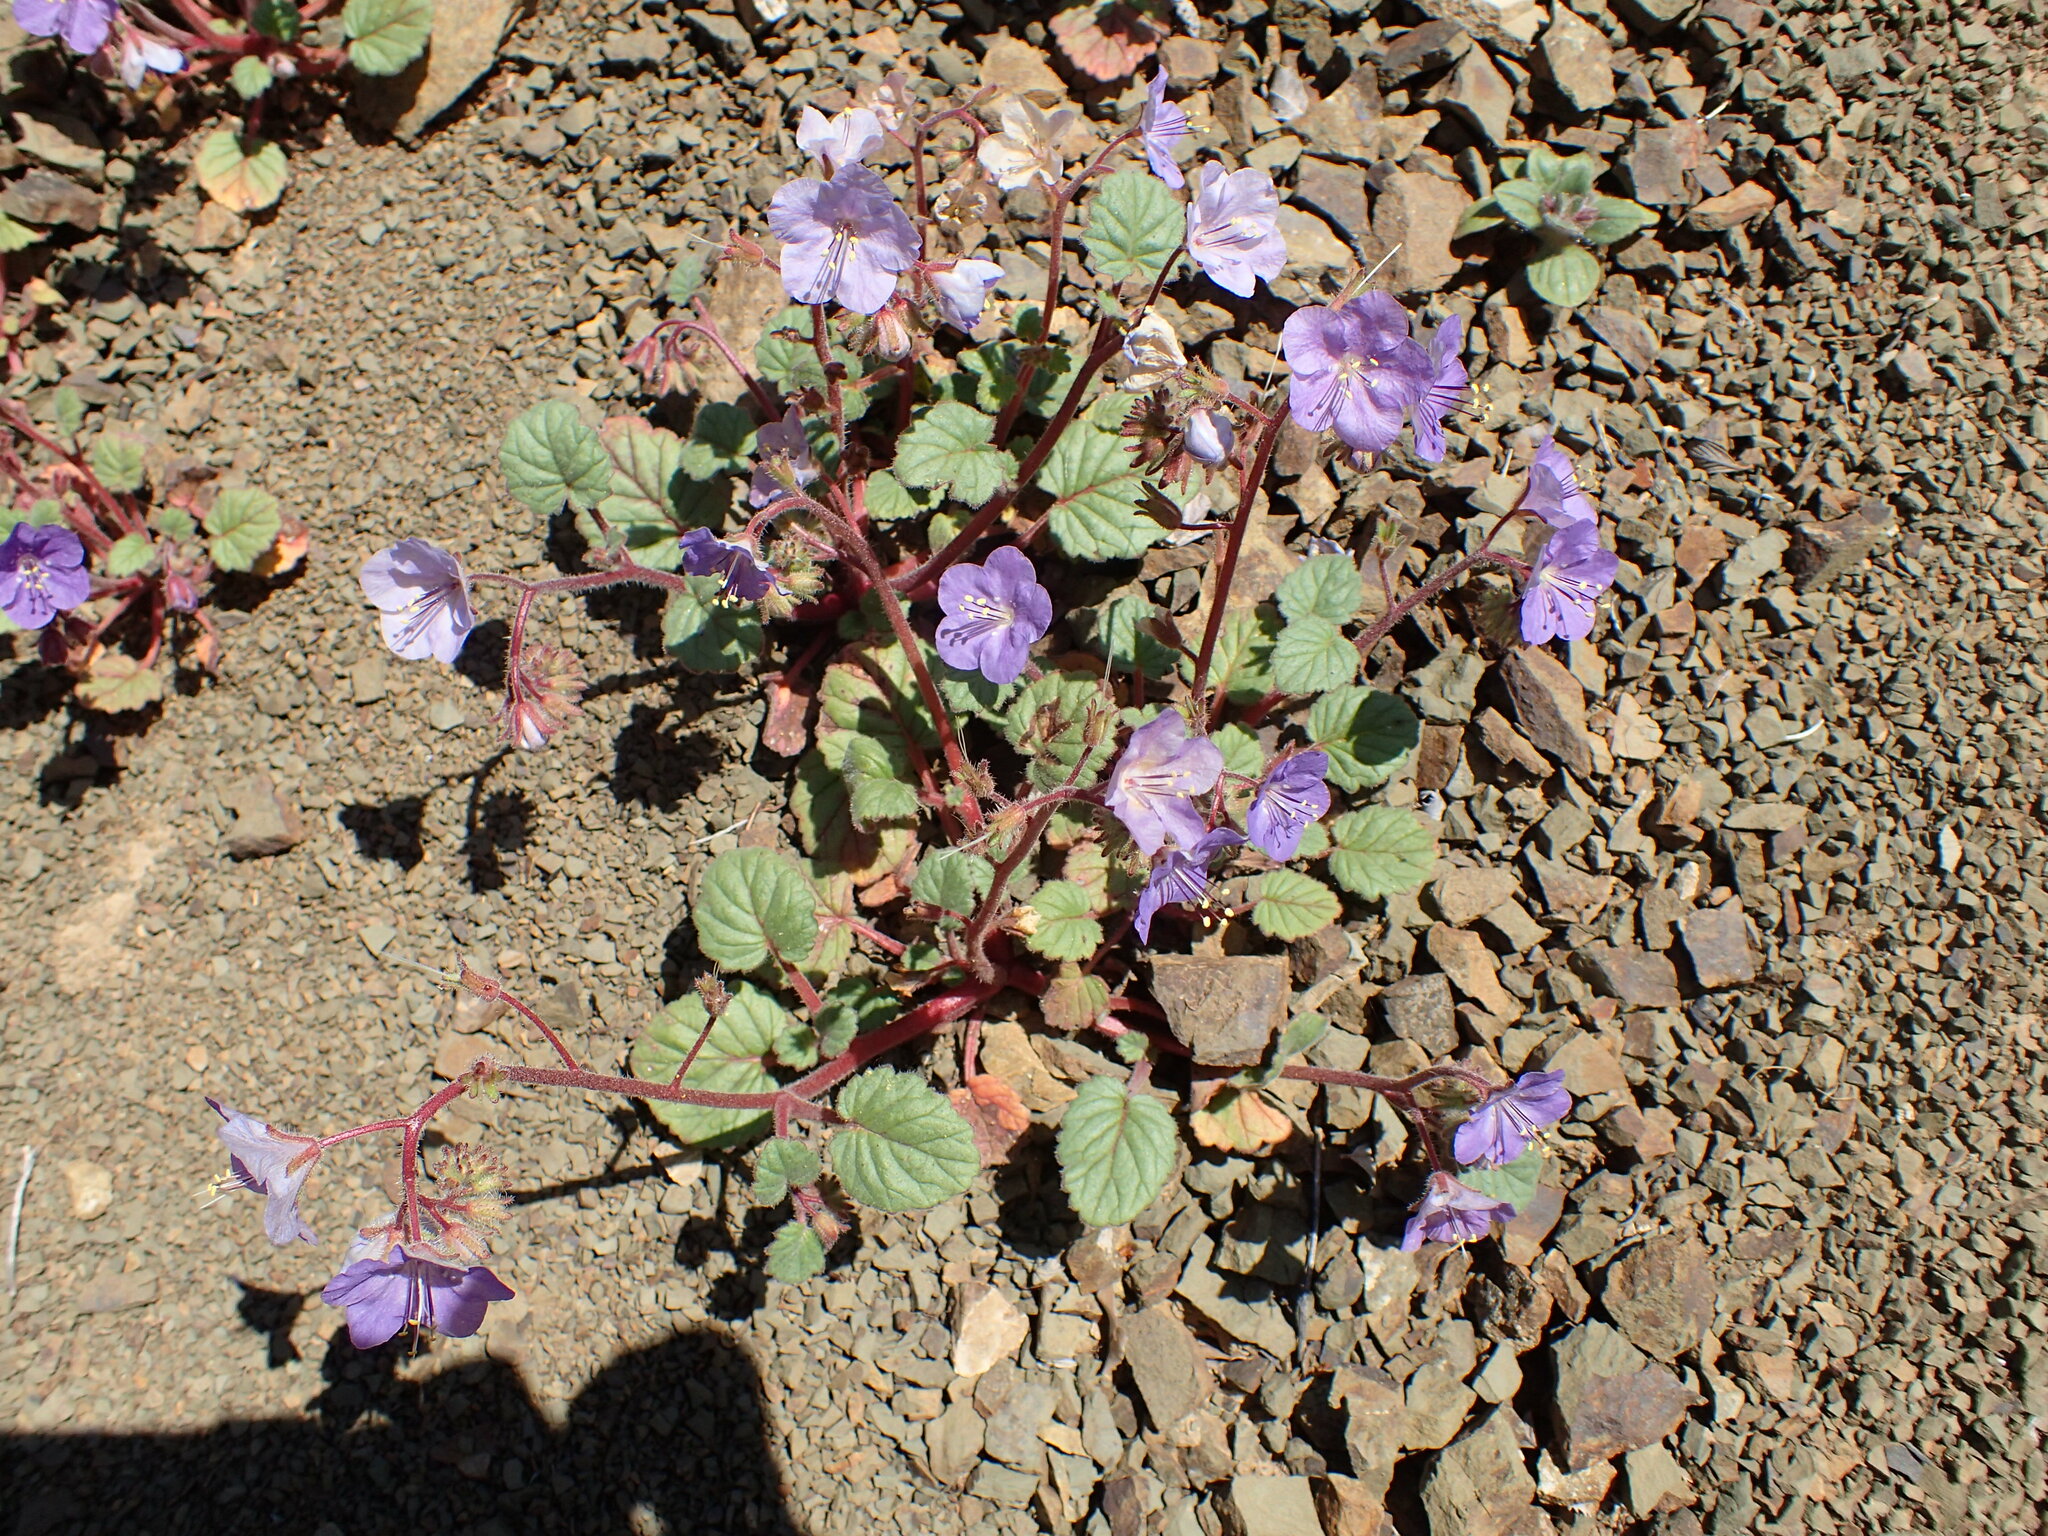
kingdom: Plantae
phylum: Tracheophyta
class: Magnoliopsida
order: Boraginales
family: Hydrophyllaceae
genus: Phacelia
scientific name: Phacelia longipes
